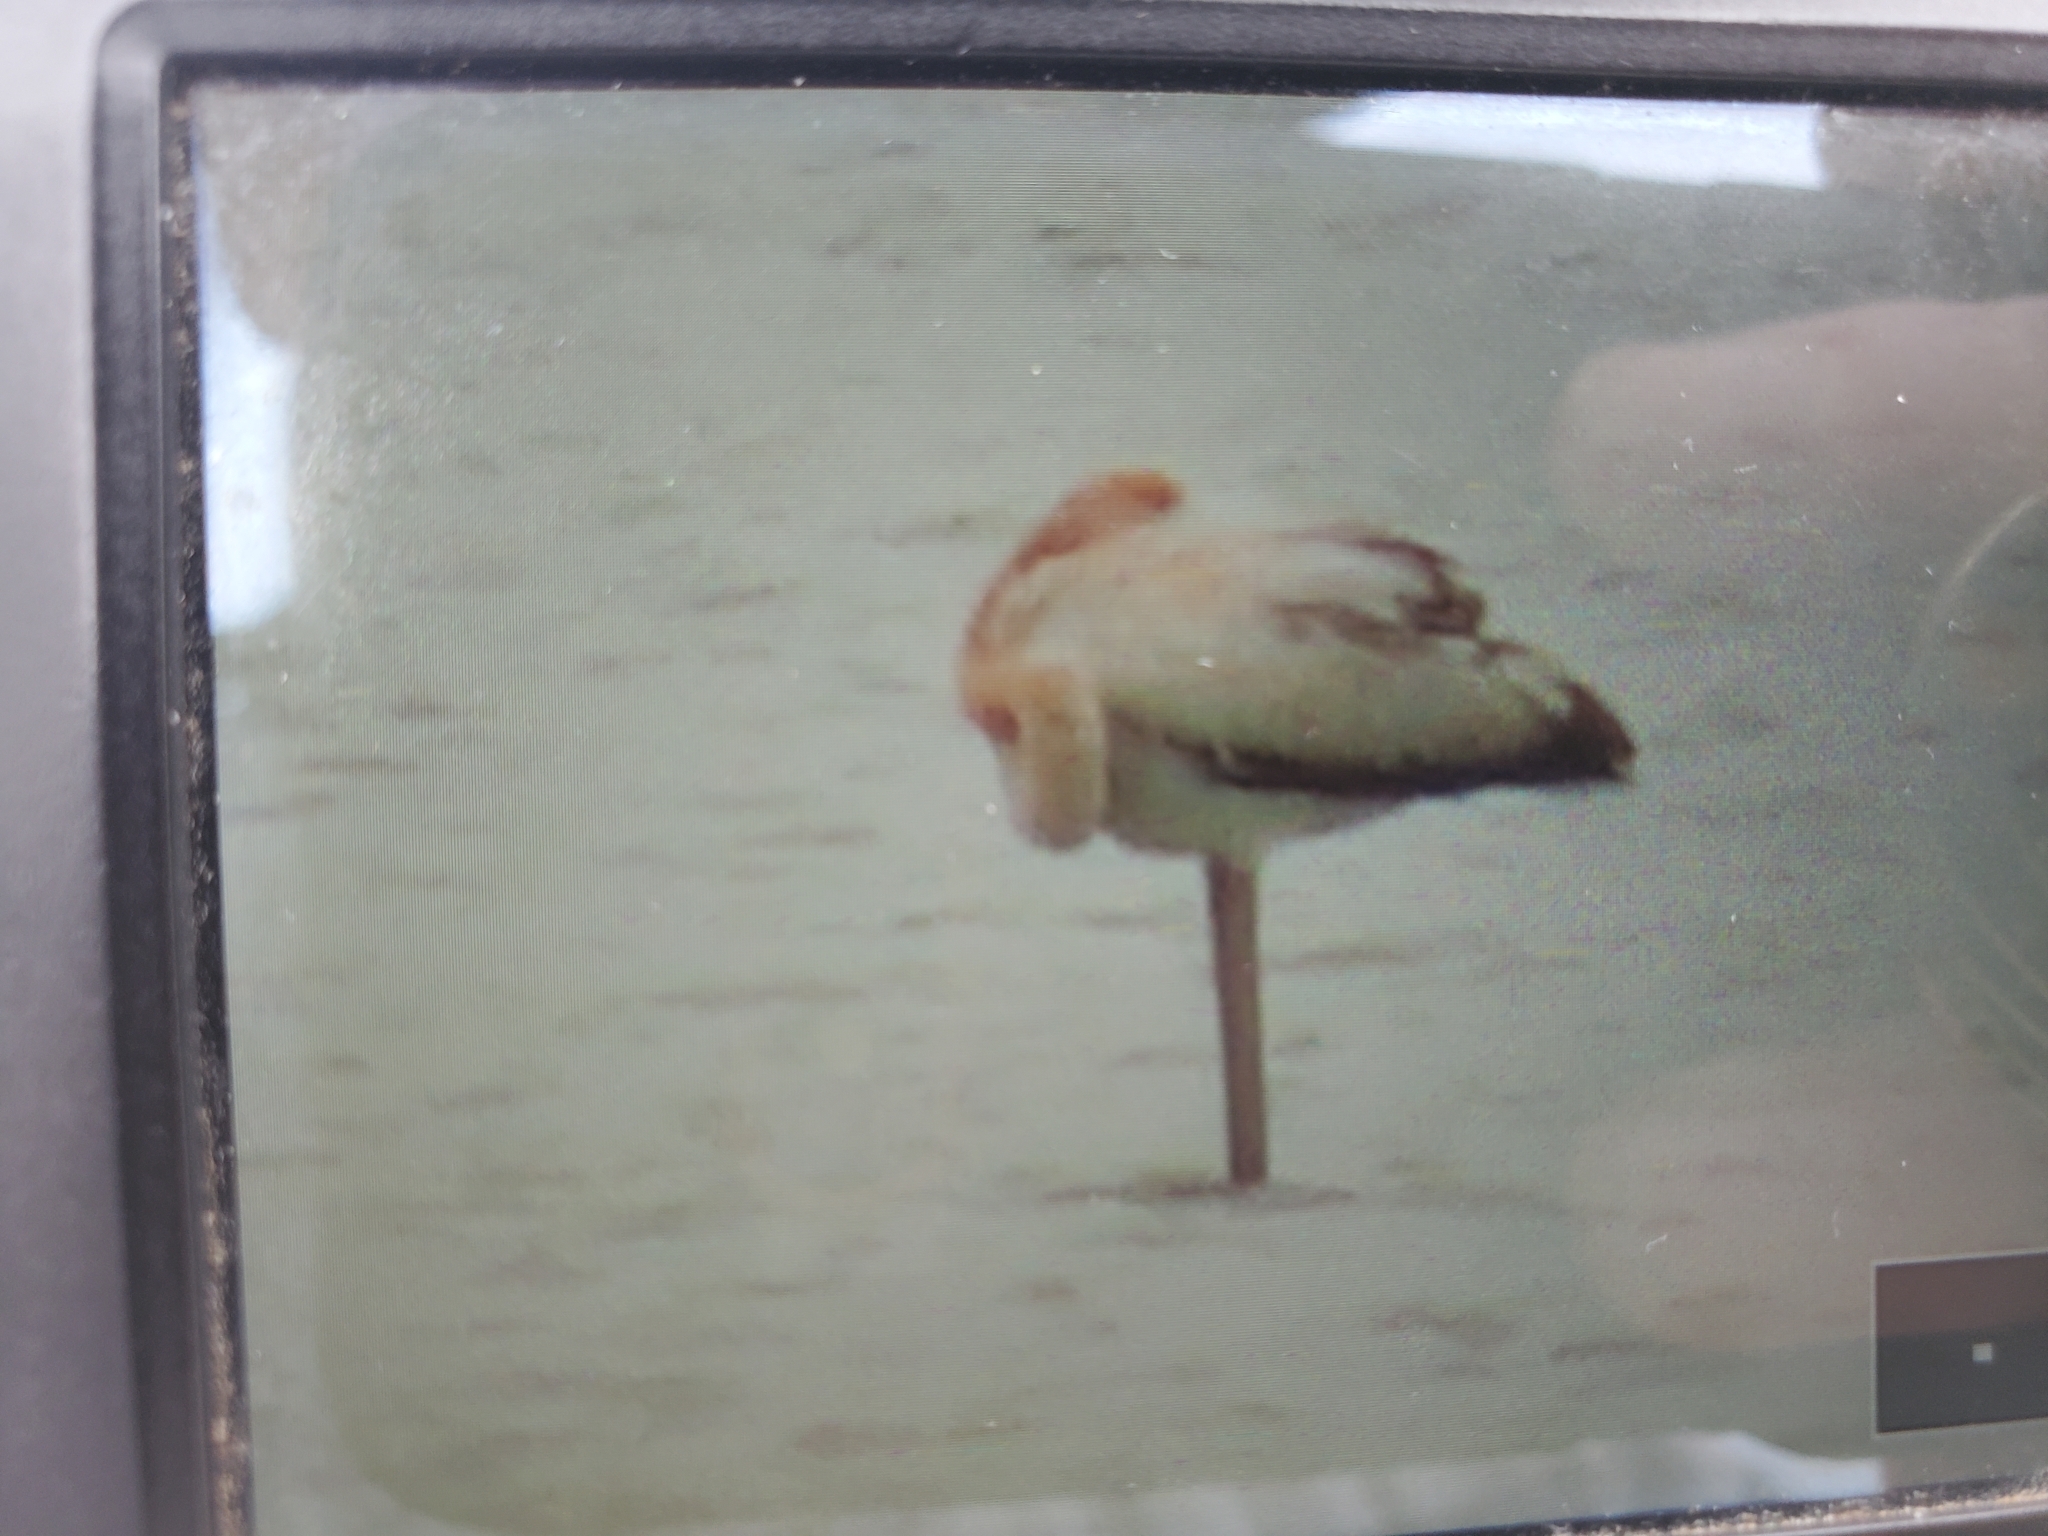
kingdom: Animalia
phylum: Chordata
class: Aves
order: Phoenicopteriformes
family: Phoenicopteridae
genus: Phoenicopterus
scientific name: Phoenicopterus ruber
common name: American flamingo
